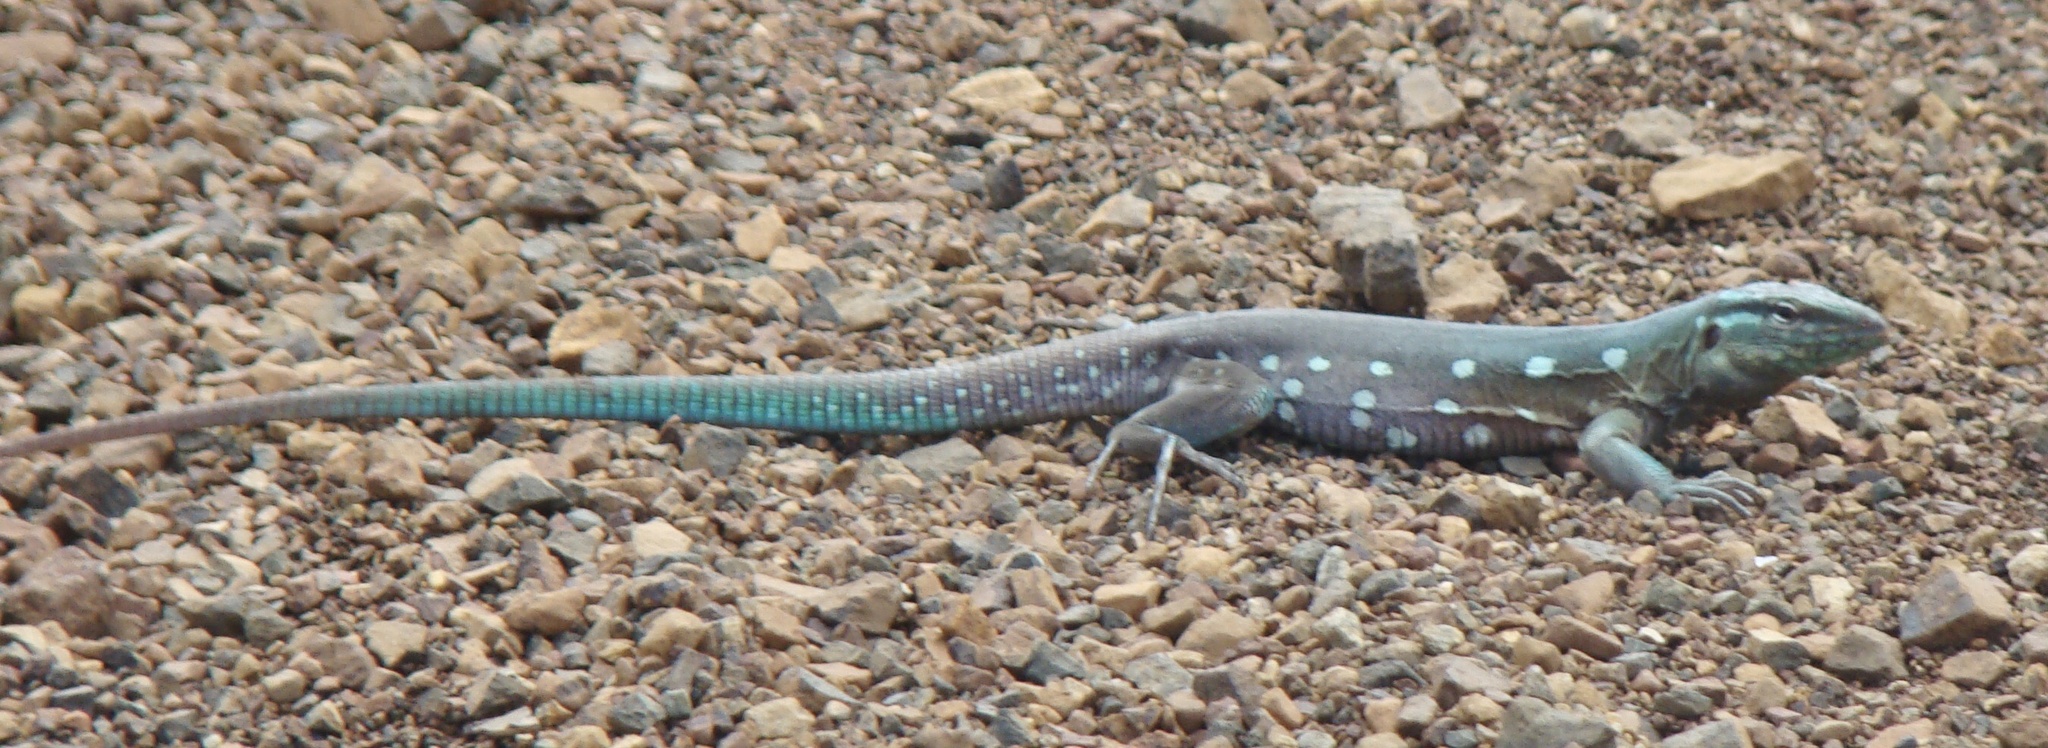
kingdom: Animalia
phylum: Chordata
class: Squamata
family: Teiidae
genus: Cnemidophorus
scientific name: Cnemidophorus murinus
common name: Laurent's whiptail
